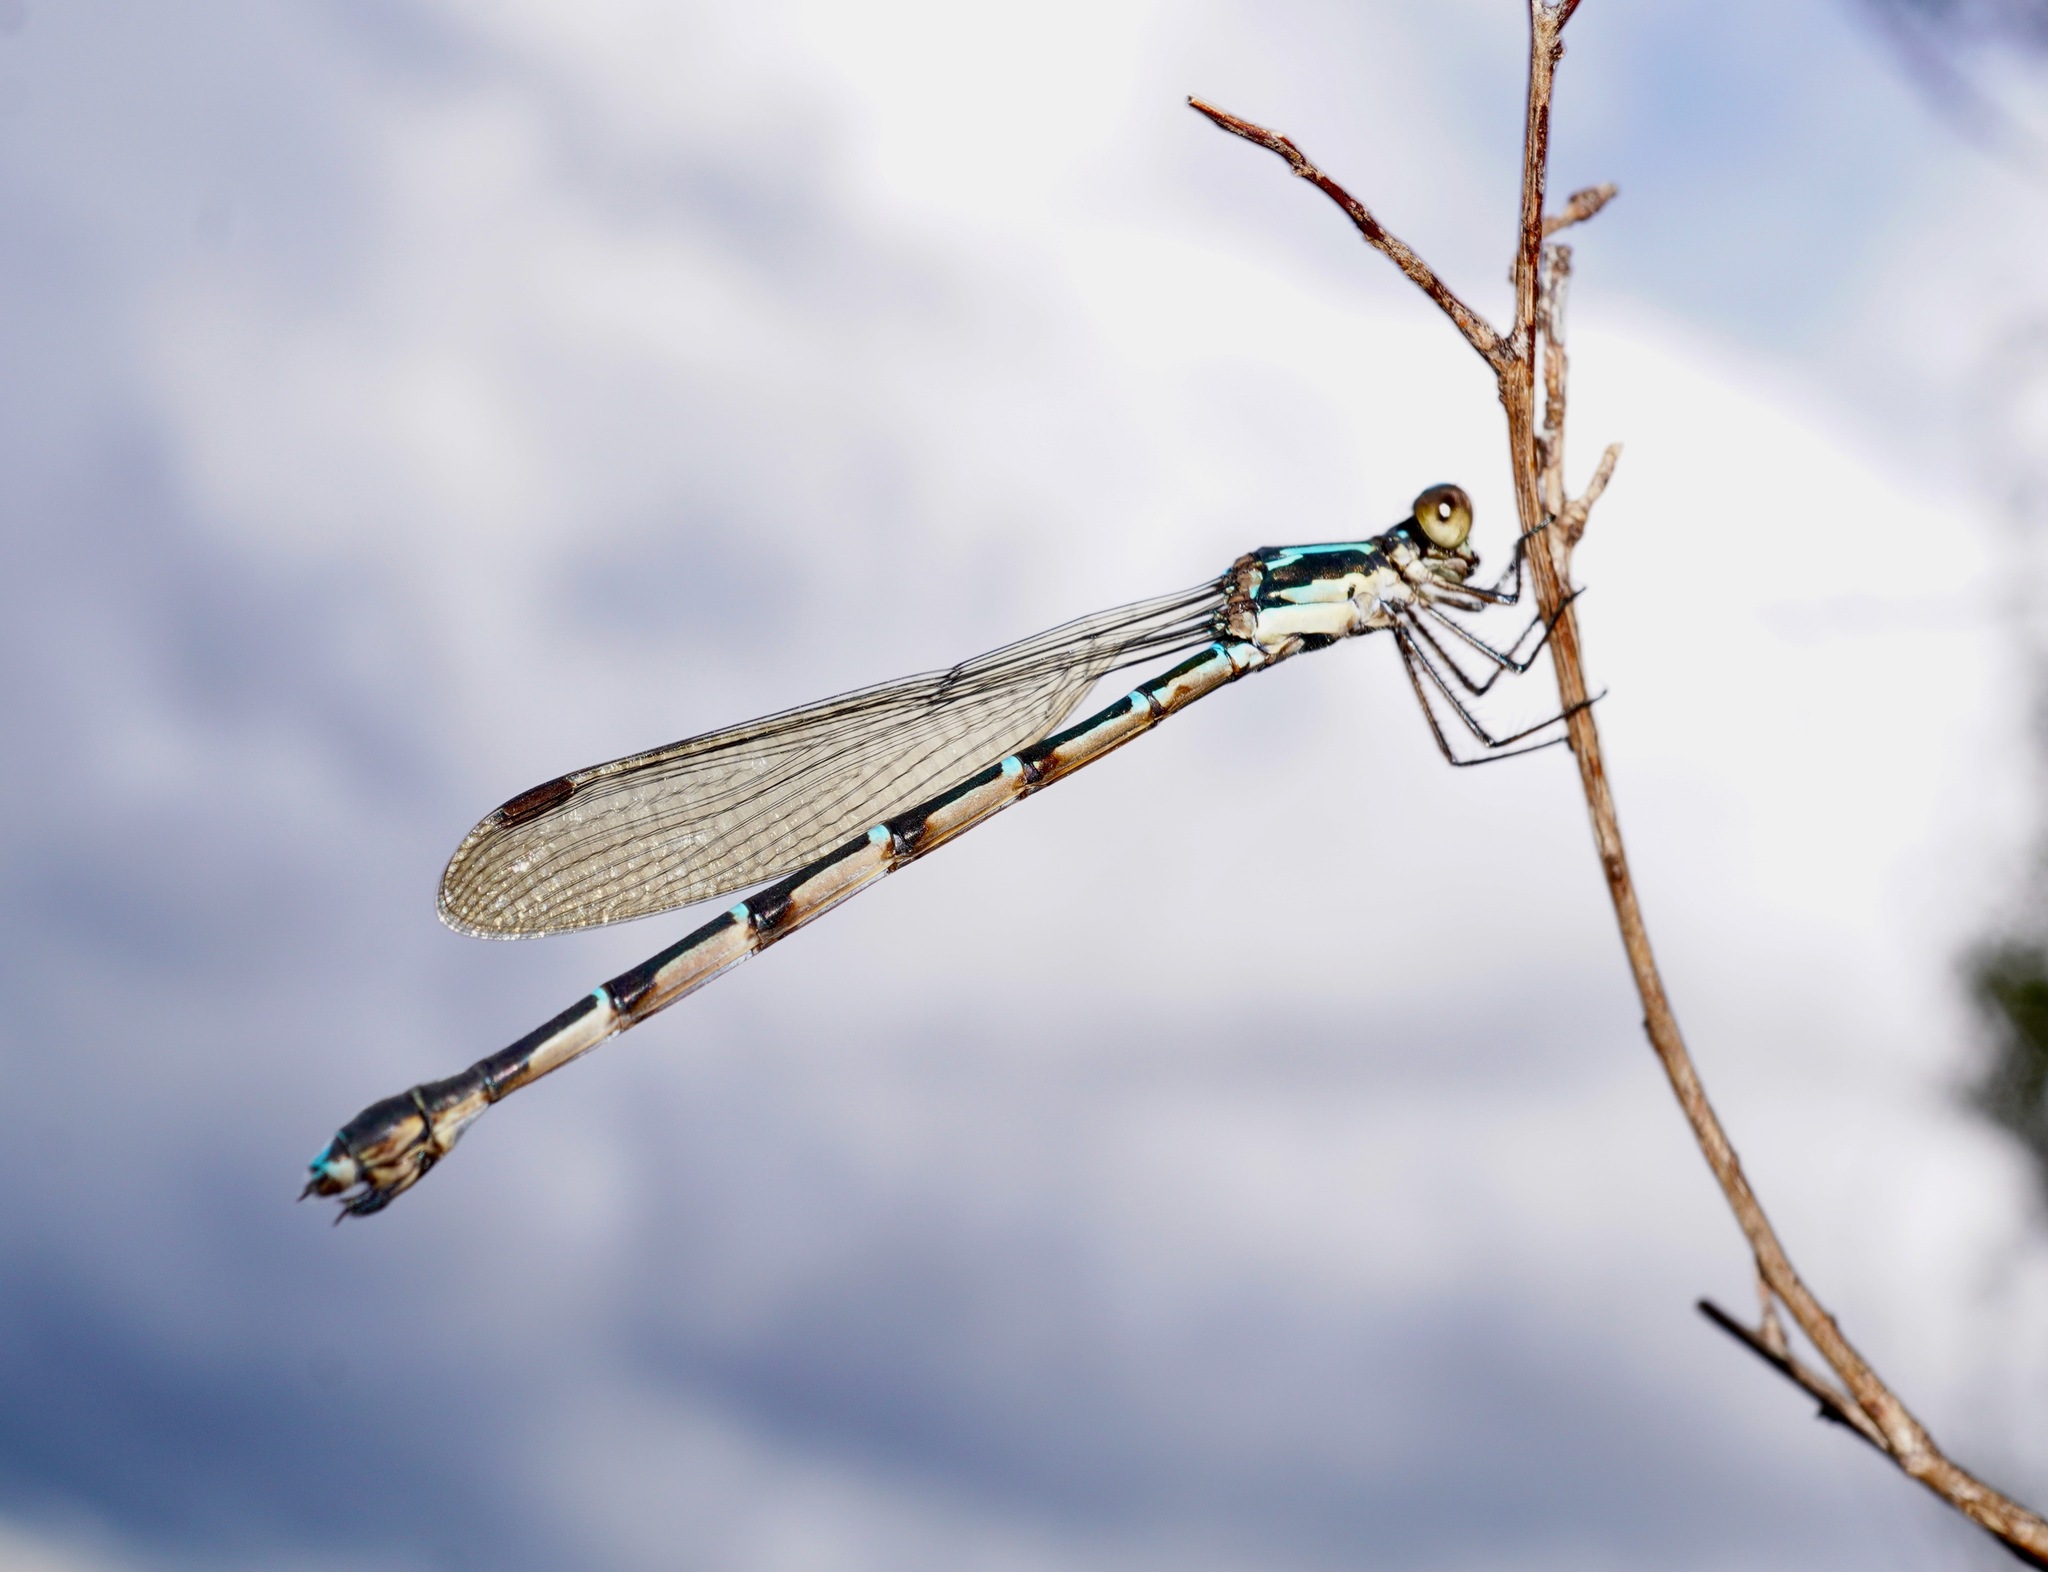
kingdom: Animalia
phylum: Arthropoda
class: Insecta
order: Odonata
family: Lestidae
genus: Austrolestes
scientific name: Austrolestes colensonis
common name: Blue damselfly
